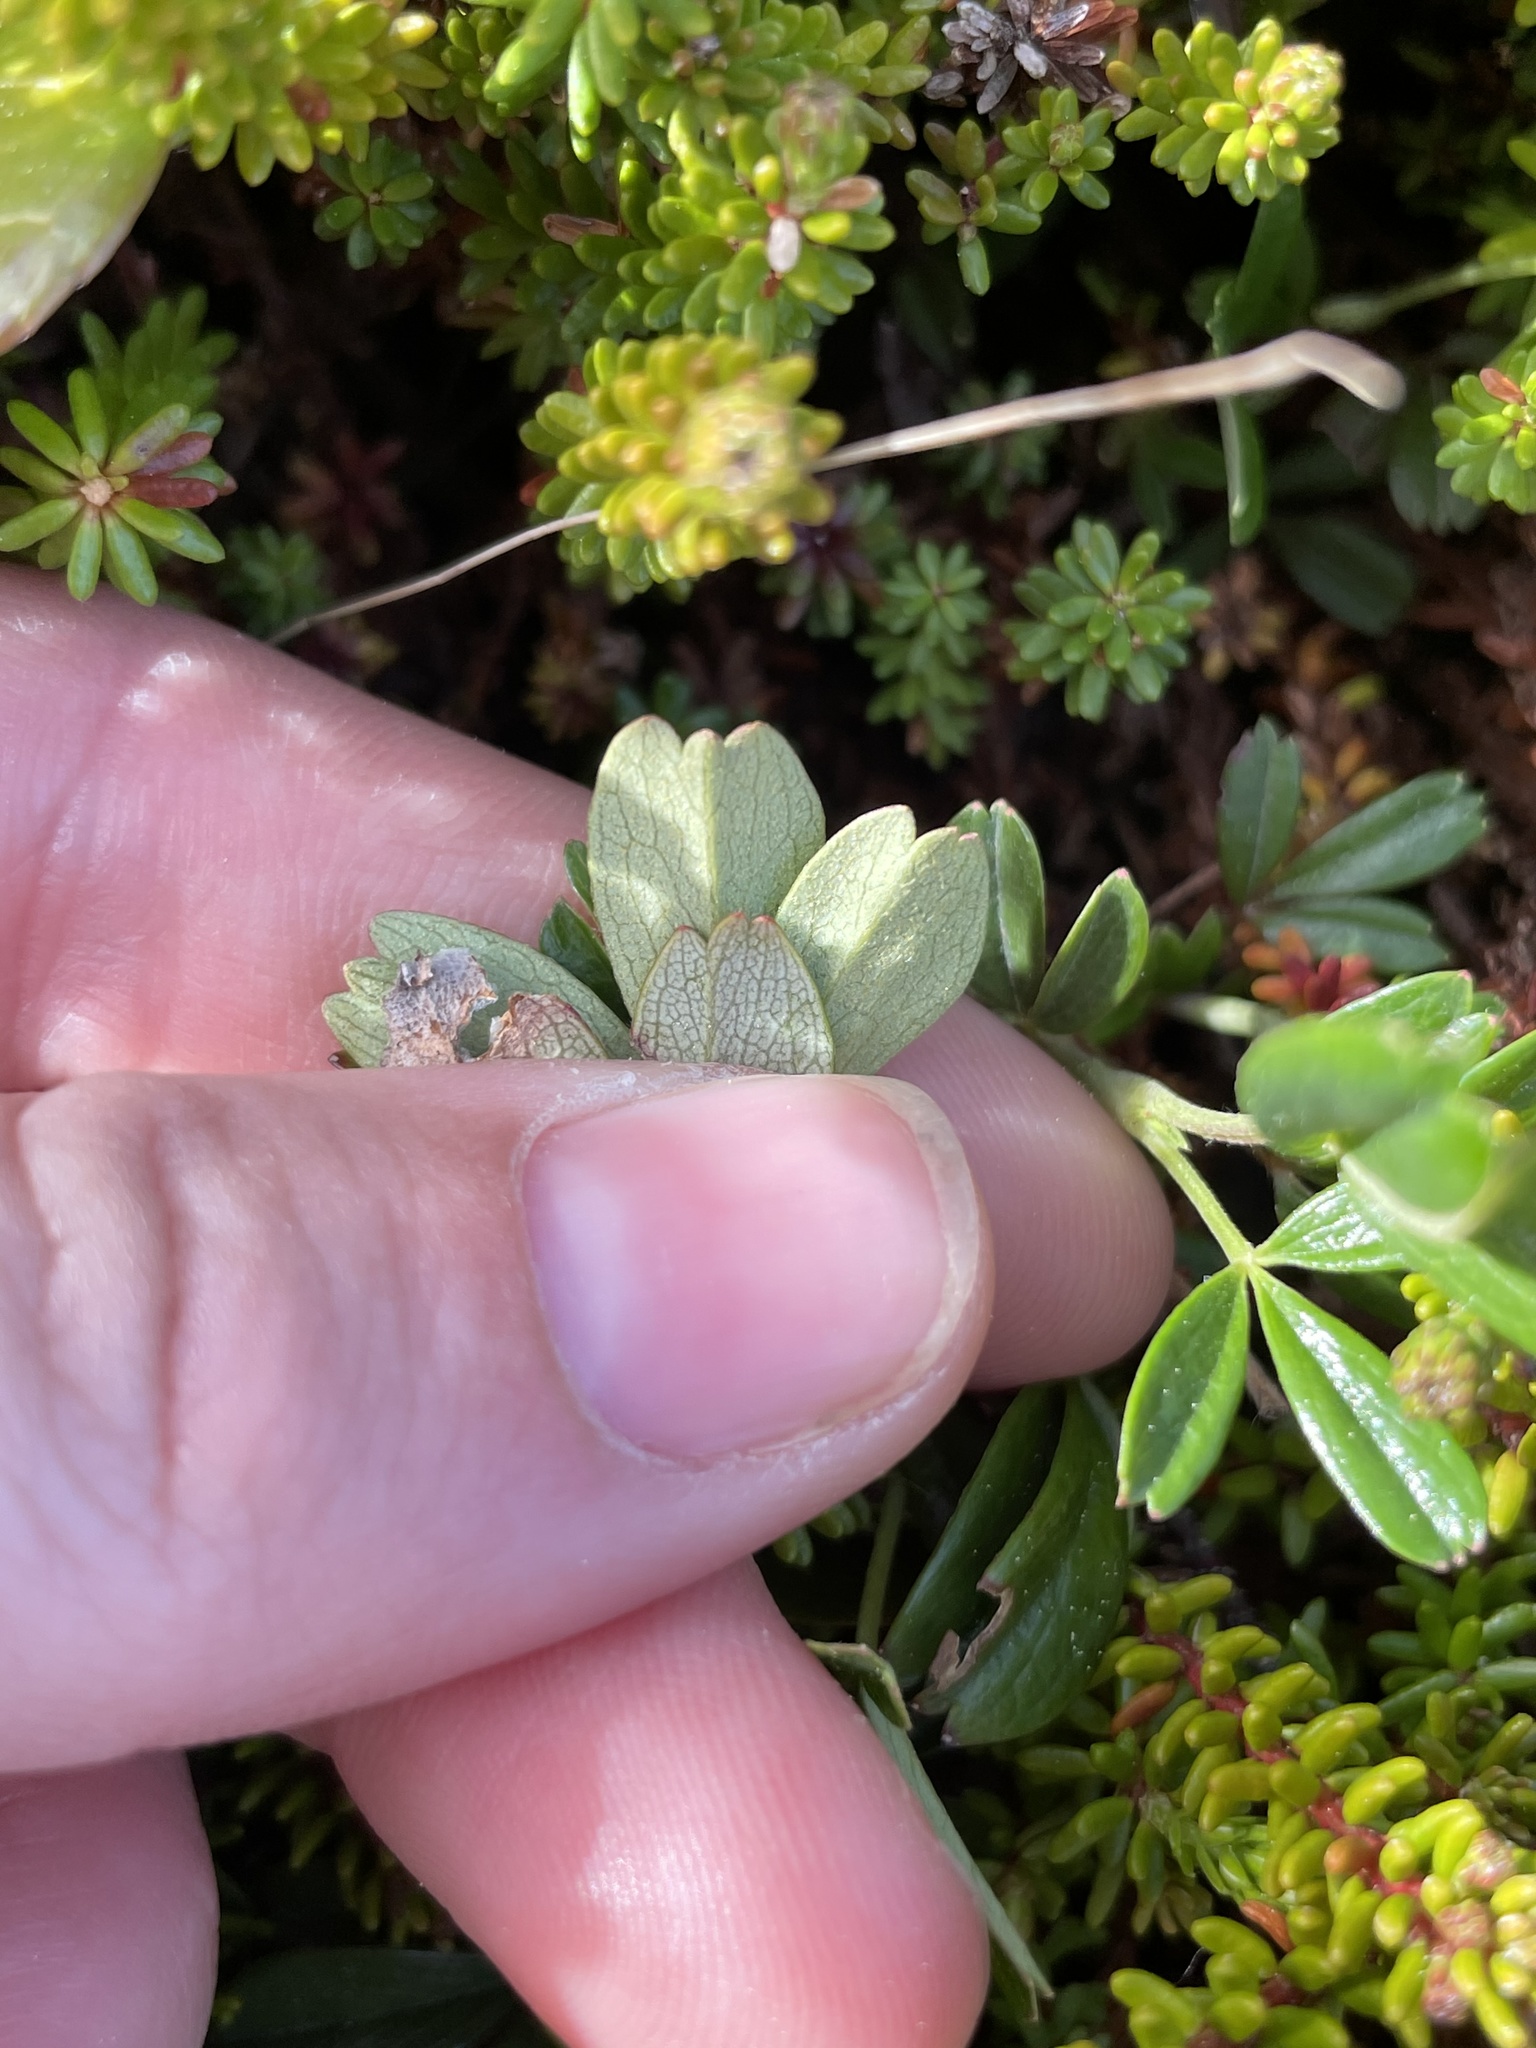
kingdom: Plantae
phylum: Tracheophyta
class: Magnoliopsida
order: Rosales
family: Rosaceae
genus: Sibbaldia
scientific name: Sibbaldia tridentata
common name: Three-toothed cinquefoil
